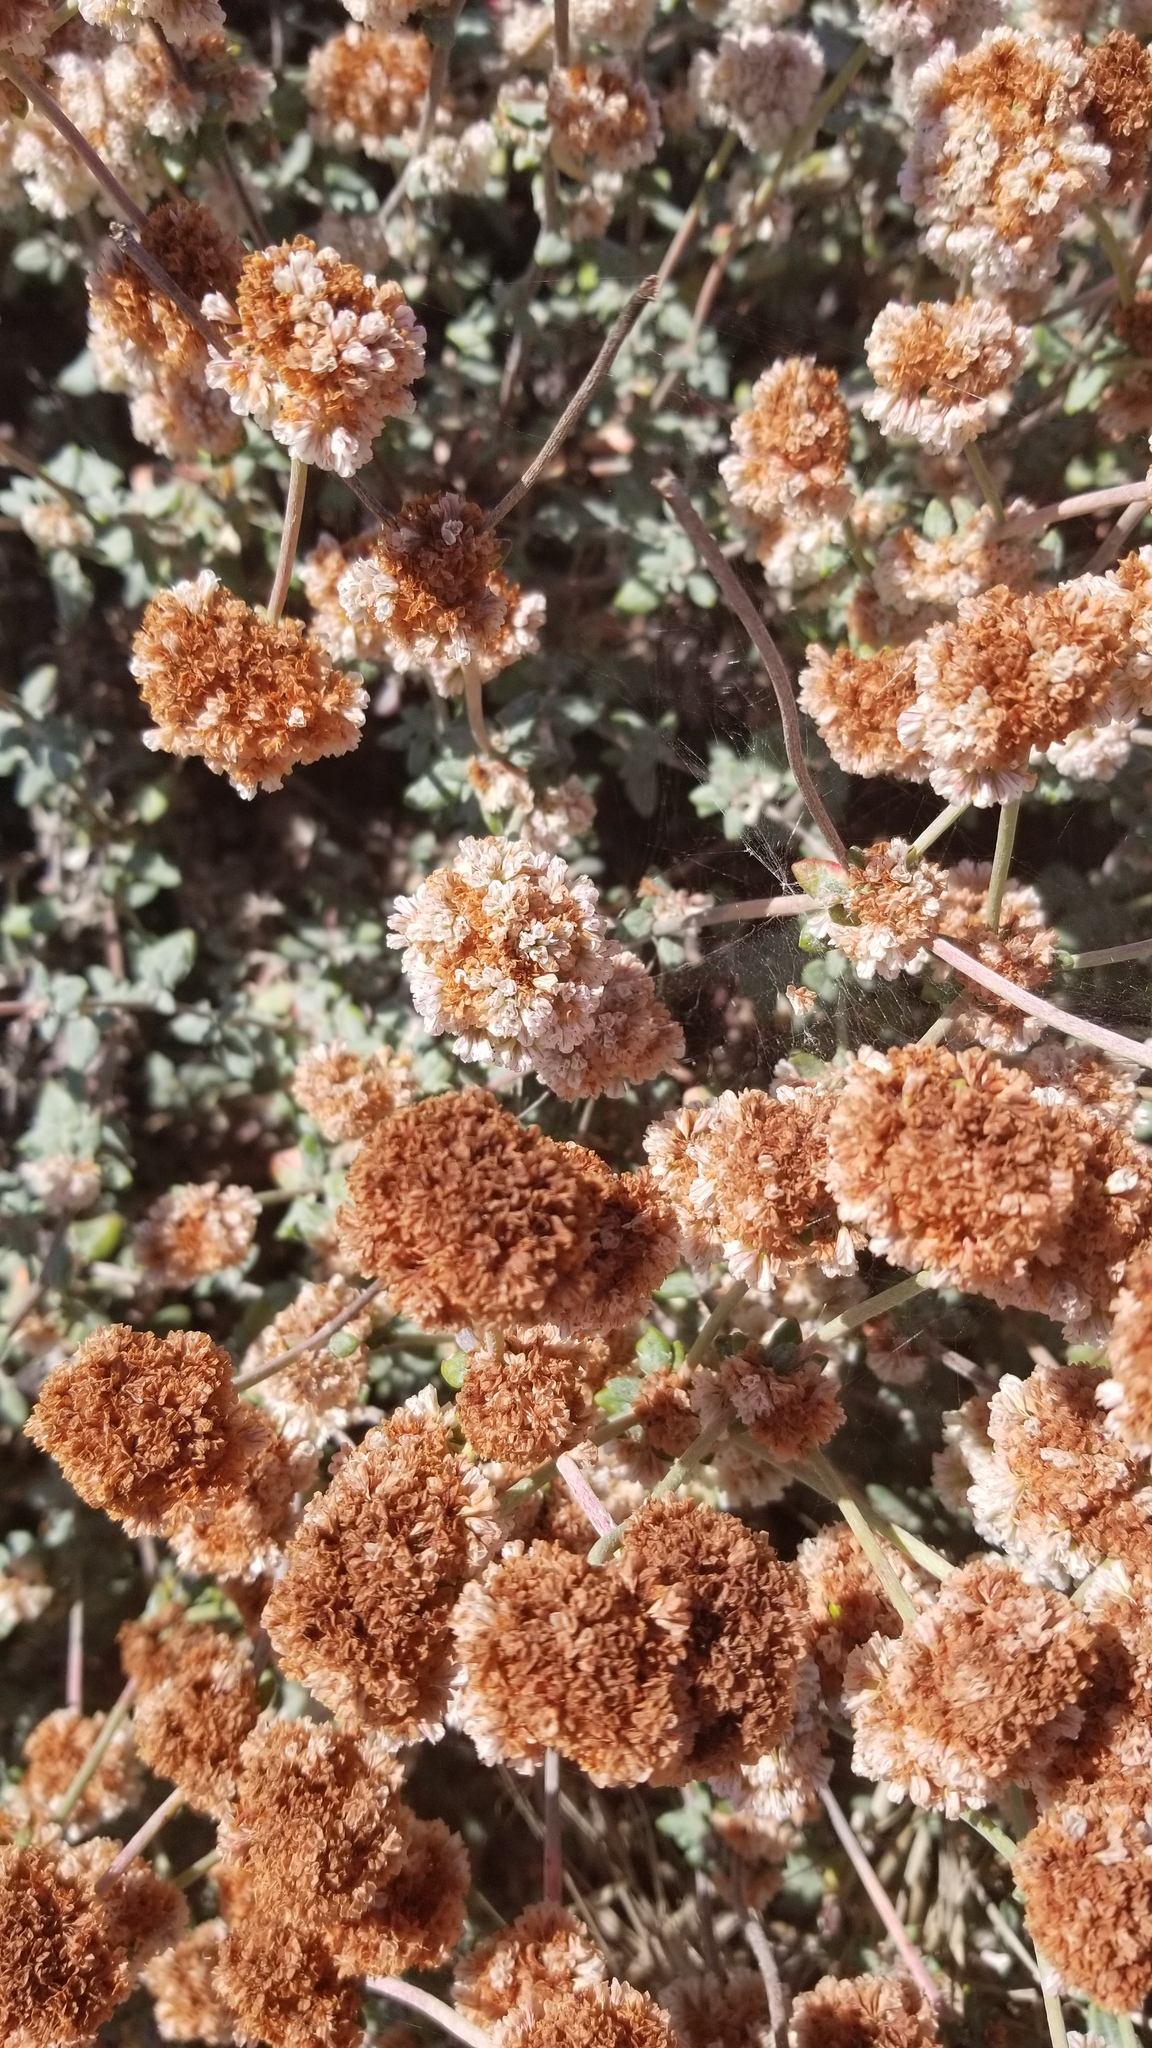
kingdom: Plantae
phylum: Tracheophyta
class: Magnoliopsida
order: Caryophyllales
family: Polygonaceae
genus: Eriogonum
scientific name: Eriogonum parvifolium
